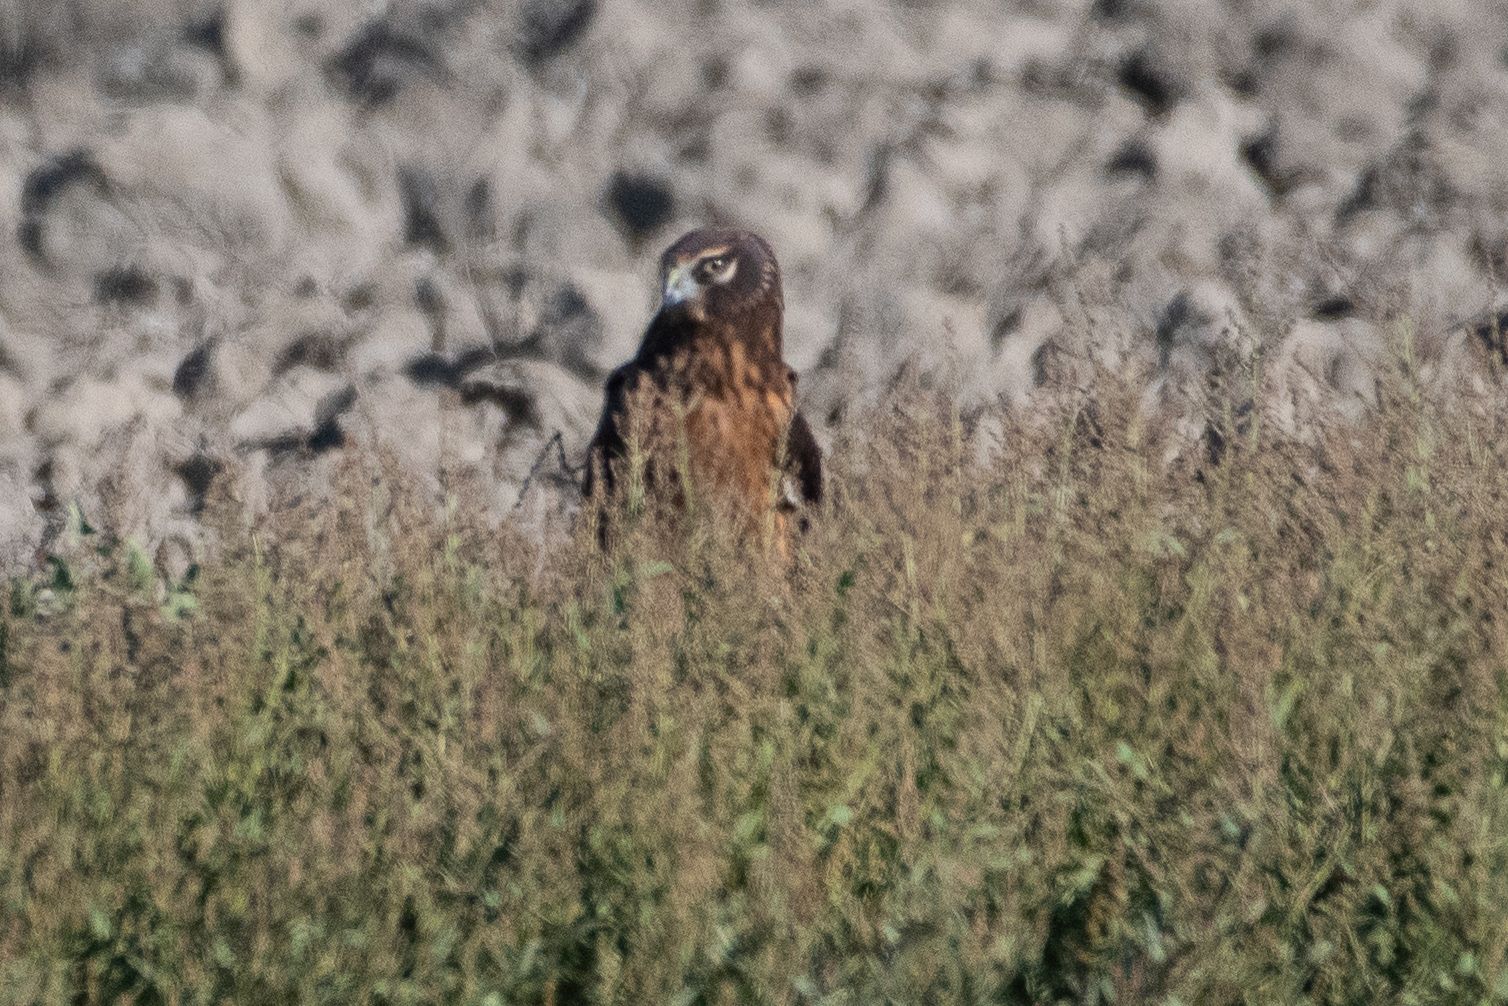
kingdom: Animalia
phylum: Chordata
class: Aves
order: Accipitriformes
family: Accipitridae
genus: Circus
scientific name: Circus cyaneus
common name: Hen harrier
